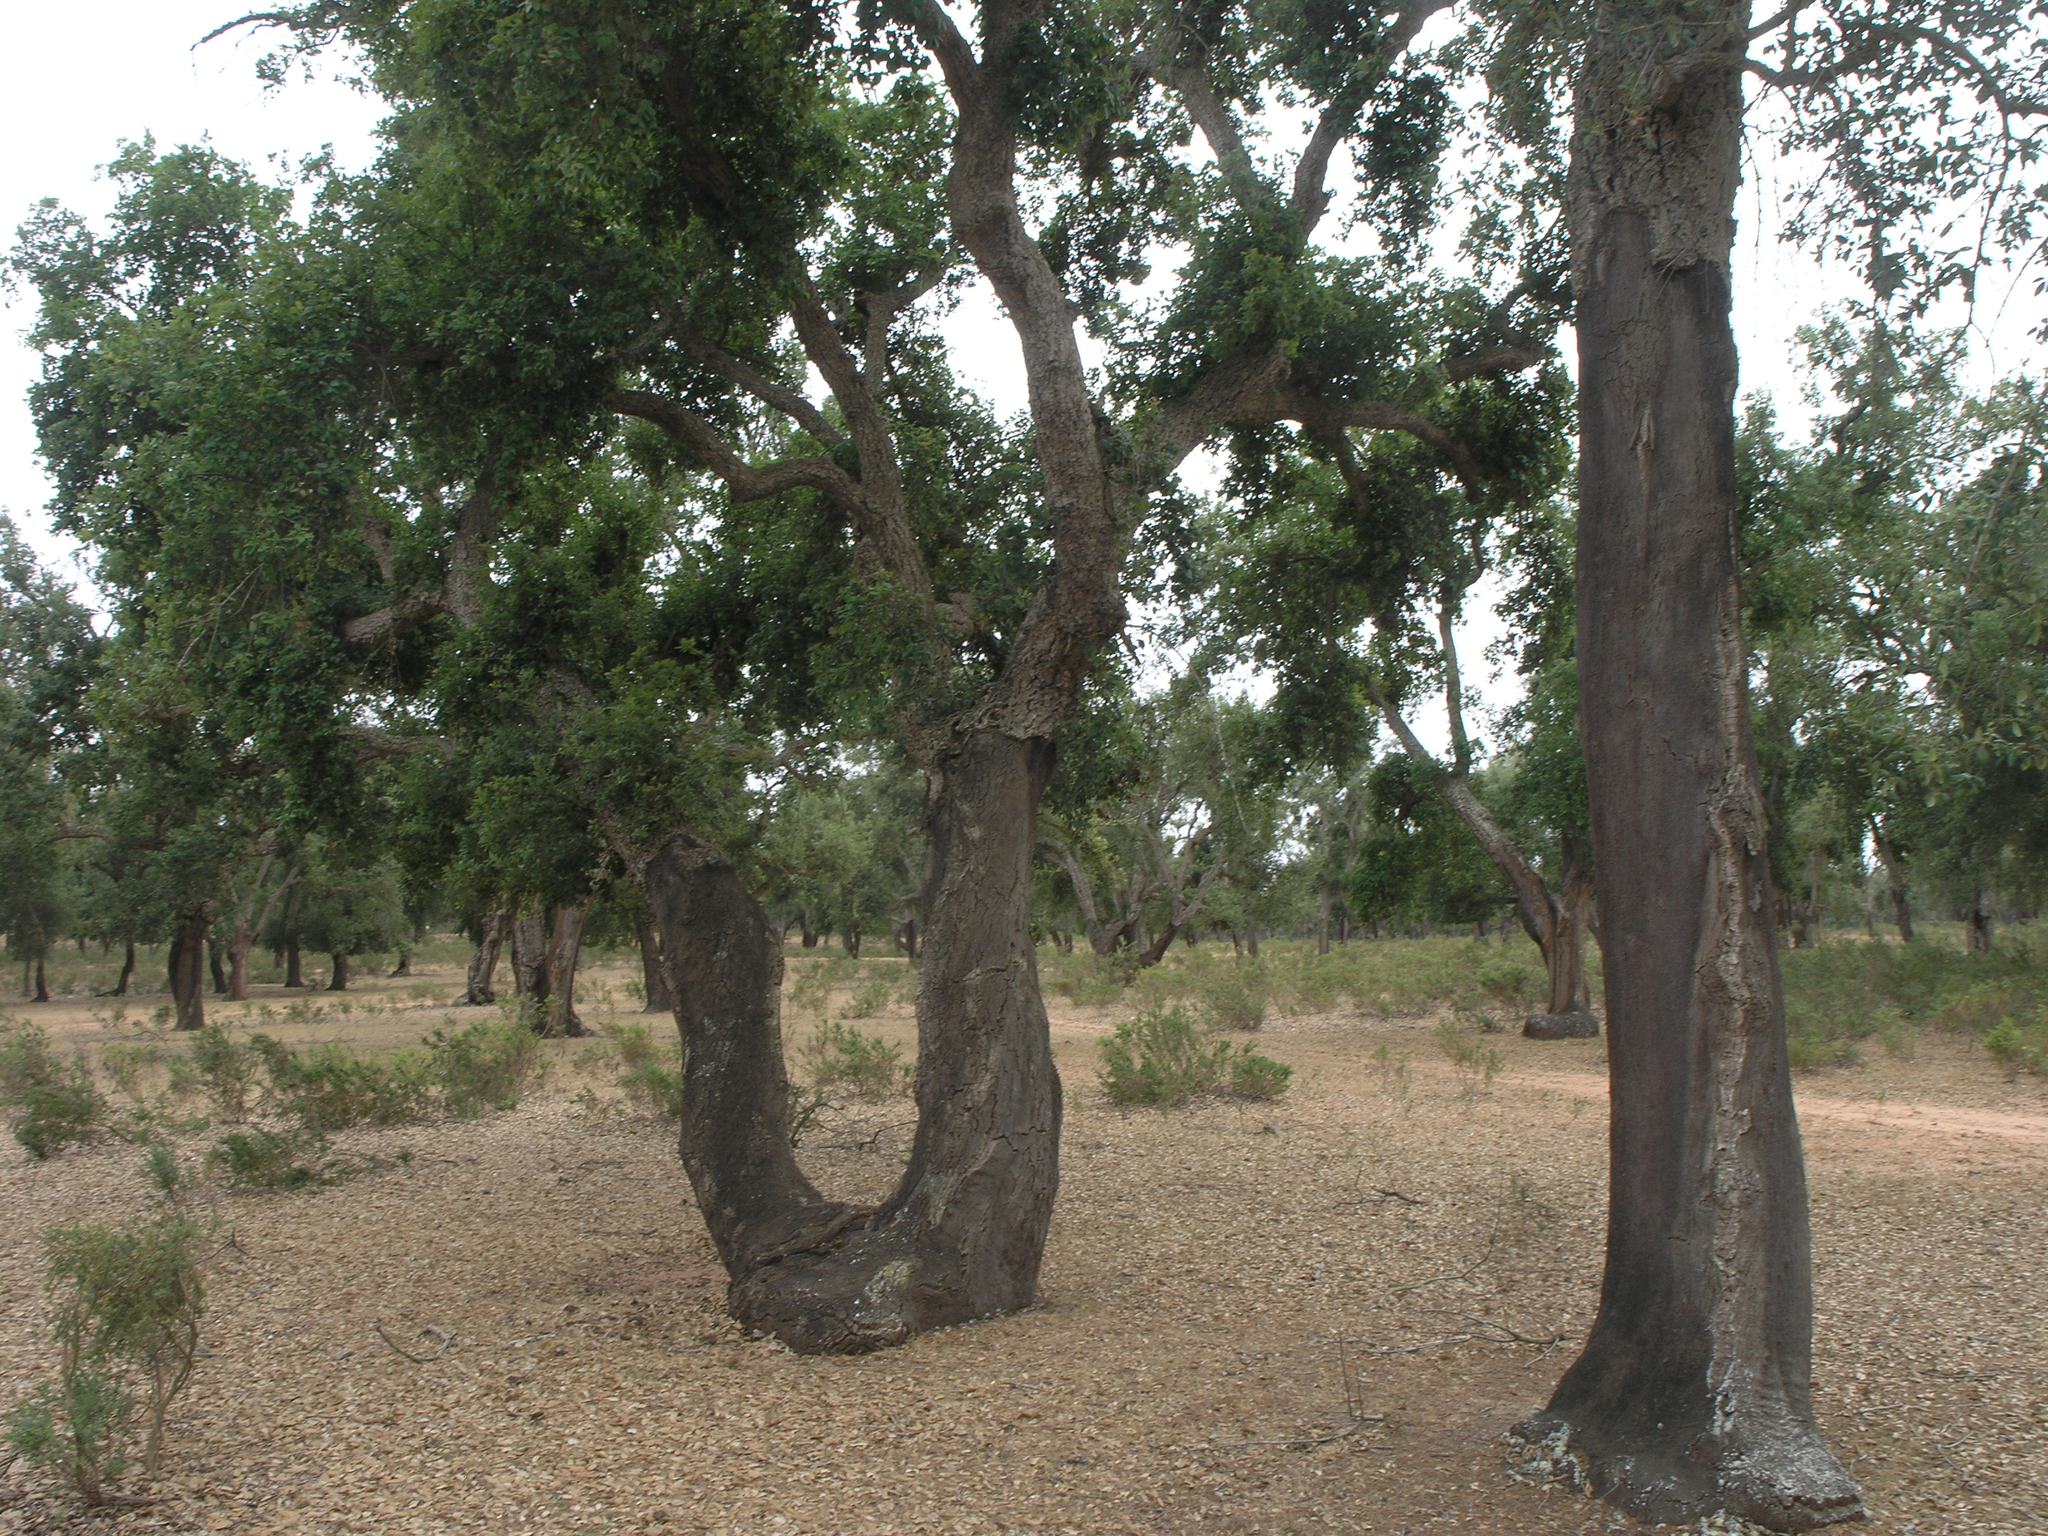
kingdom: Plantae
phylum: Tracheophyta
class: Magnoliopsida
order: Fagales
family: Fagaceae
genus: Quercus
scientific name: Quercus suber
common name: Cork oak
